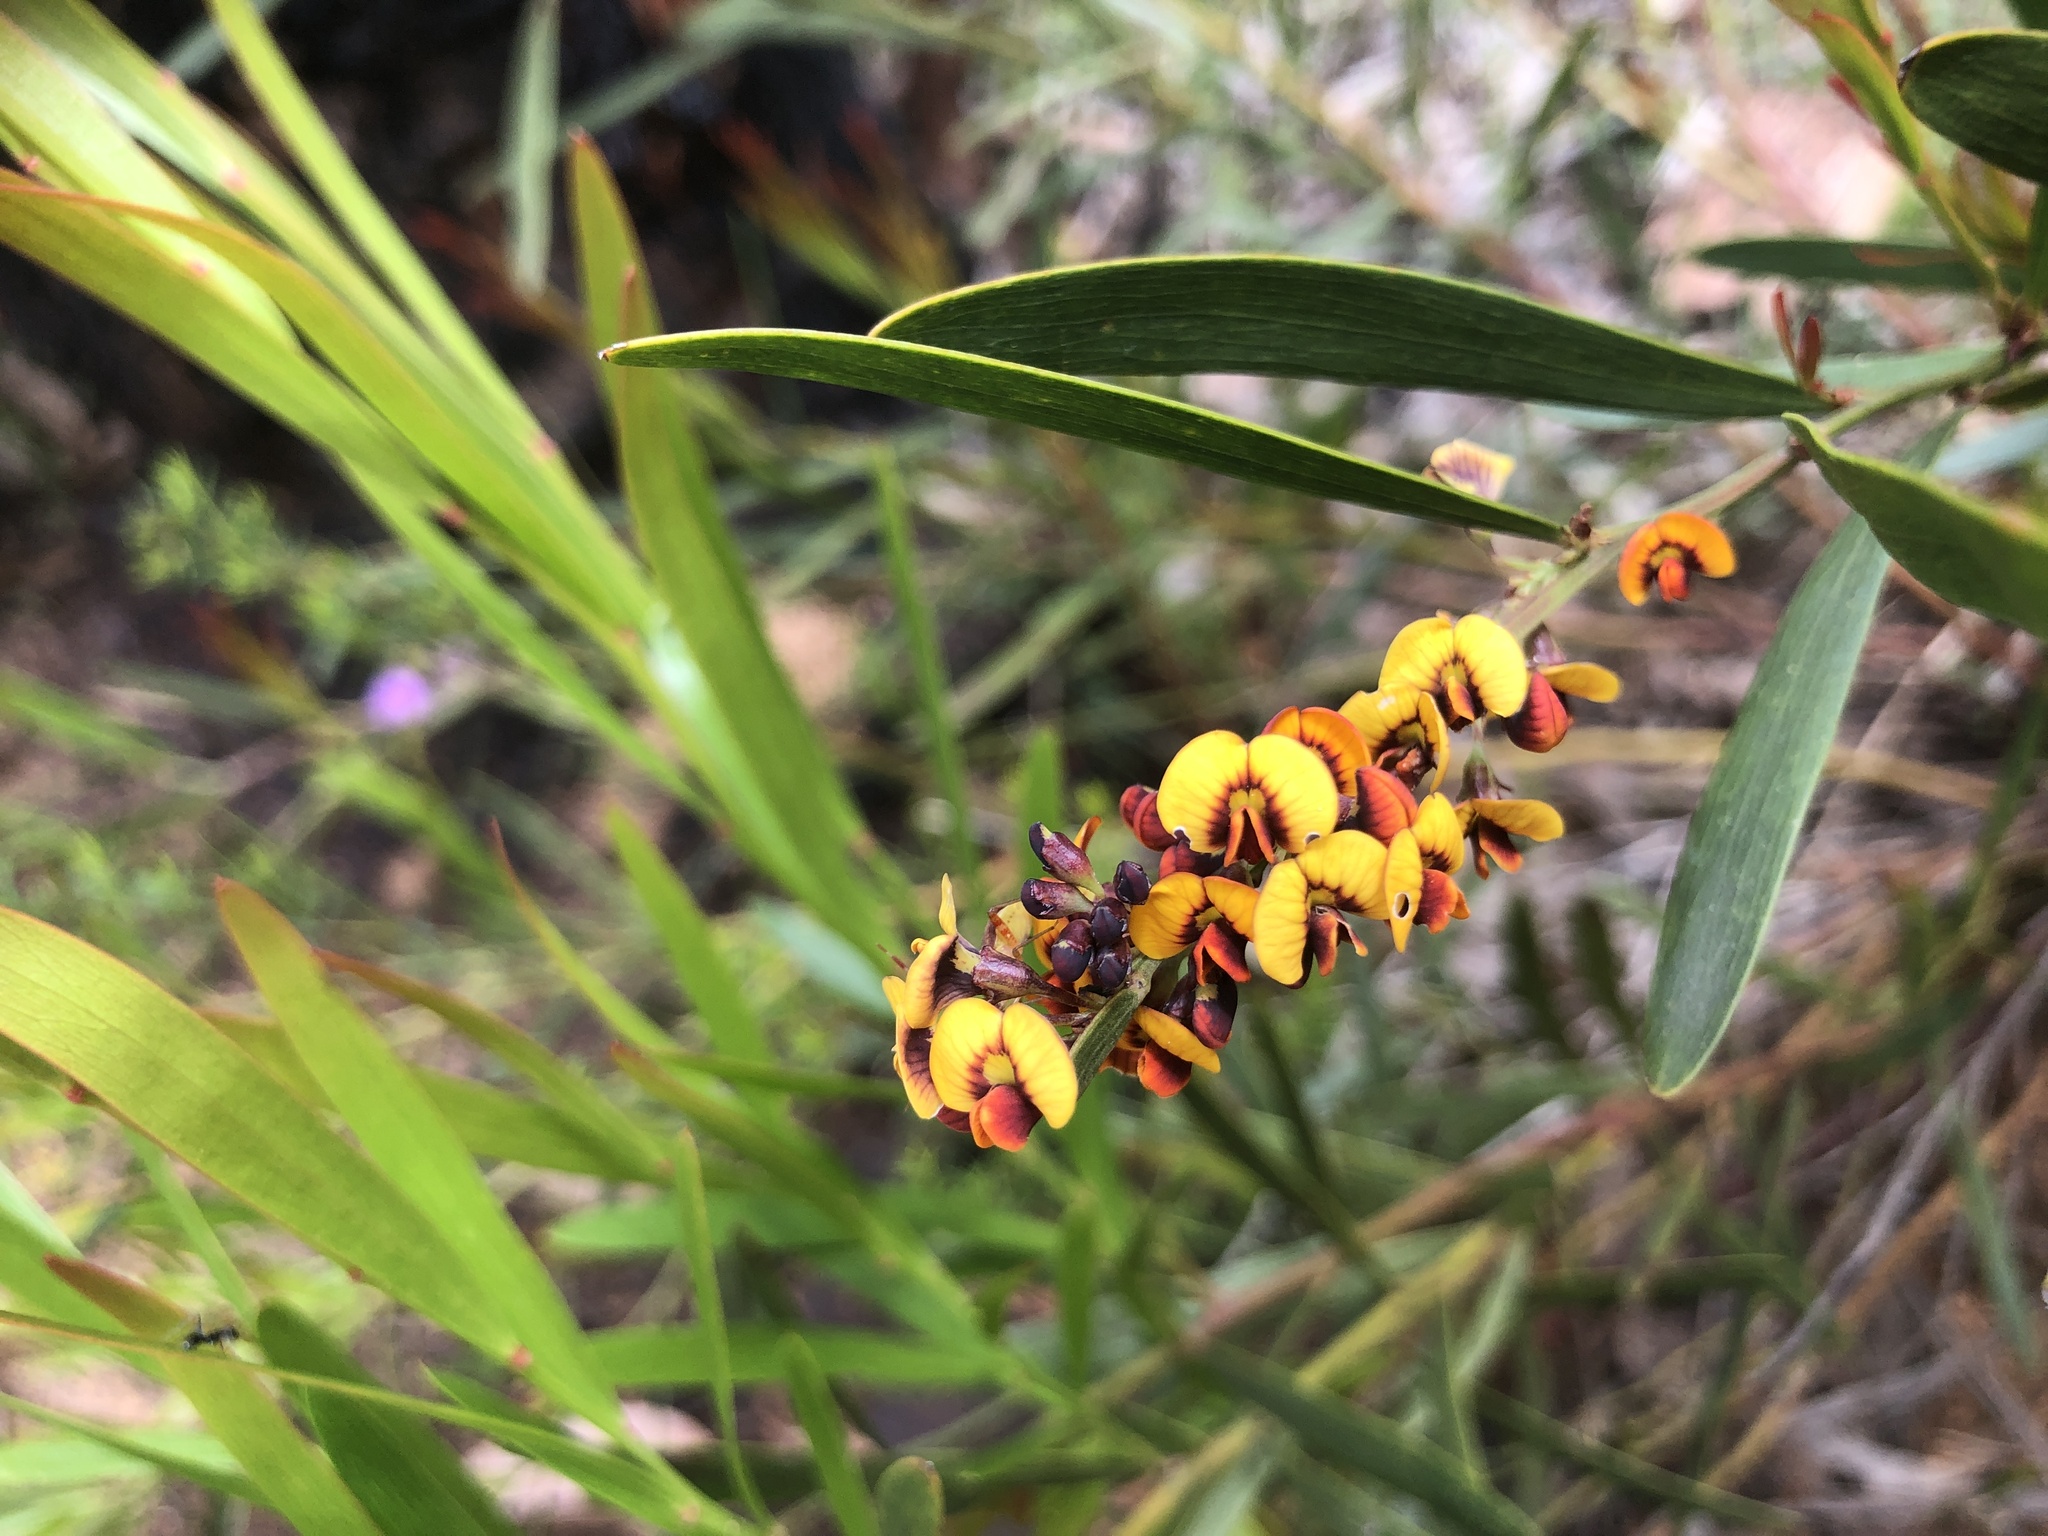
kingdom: Plantae
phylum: Tracheophyta
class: Magnoliopsida
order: Fabales
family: Fabaceae
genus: Daviesia
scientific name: Daviesia leptophylla
